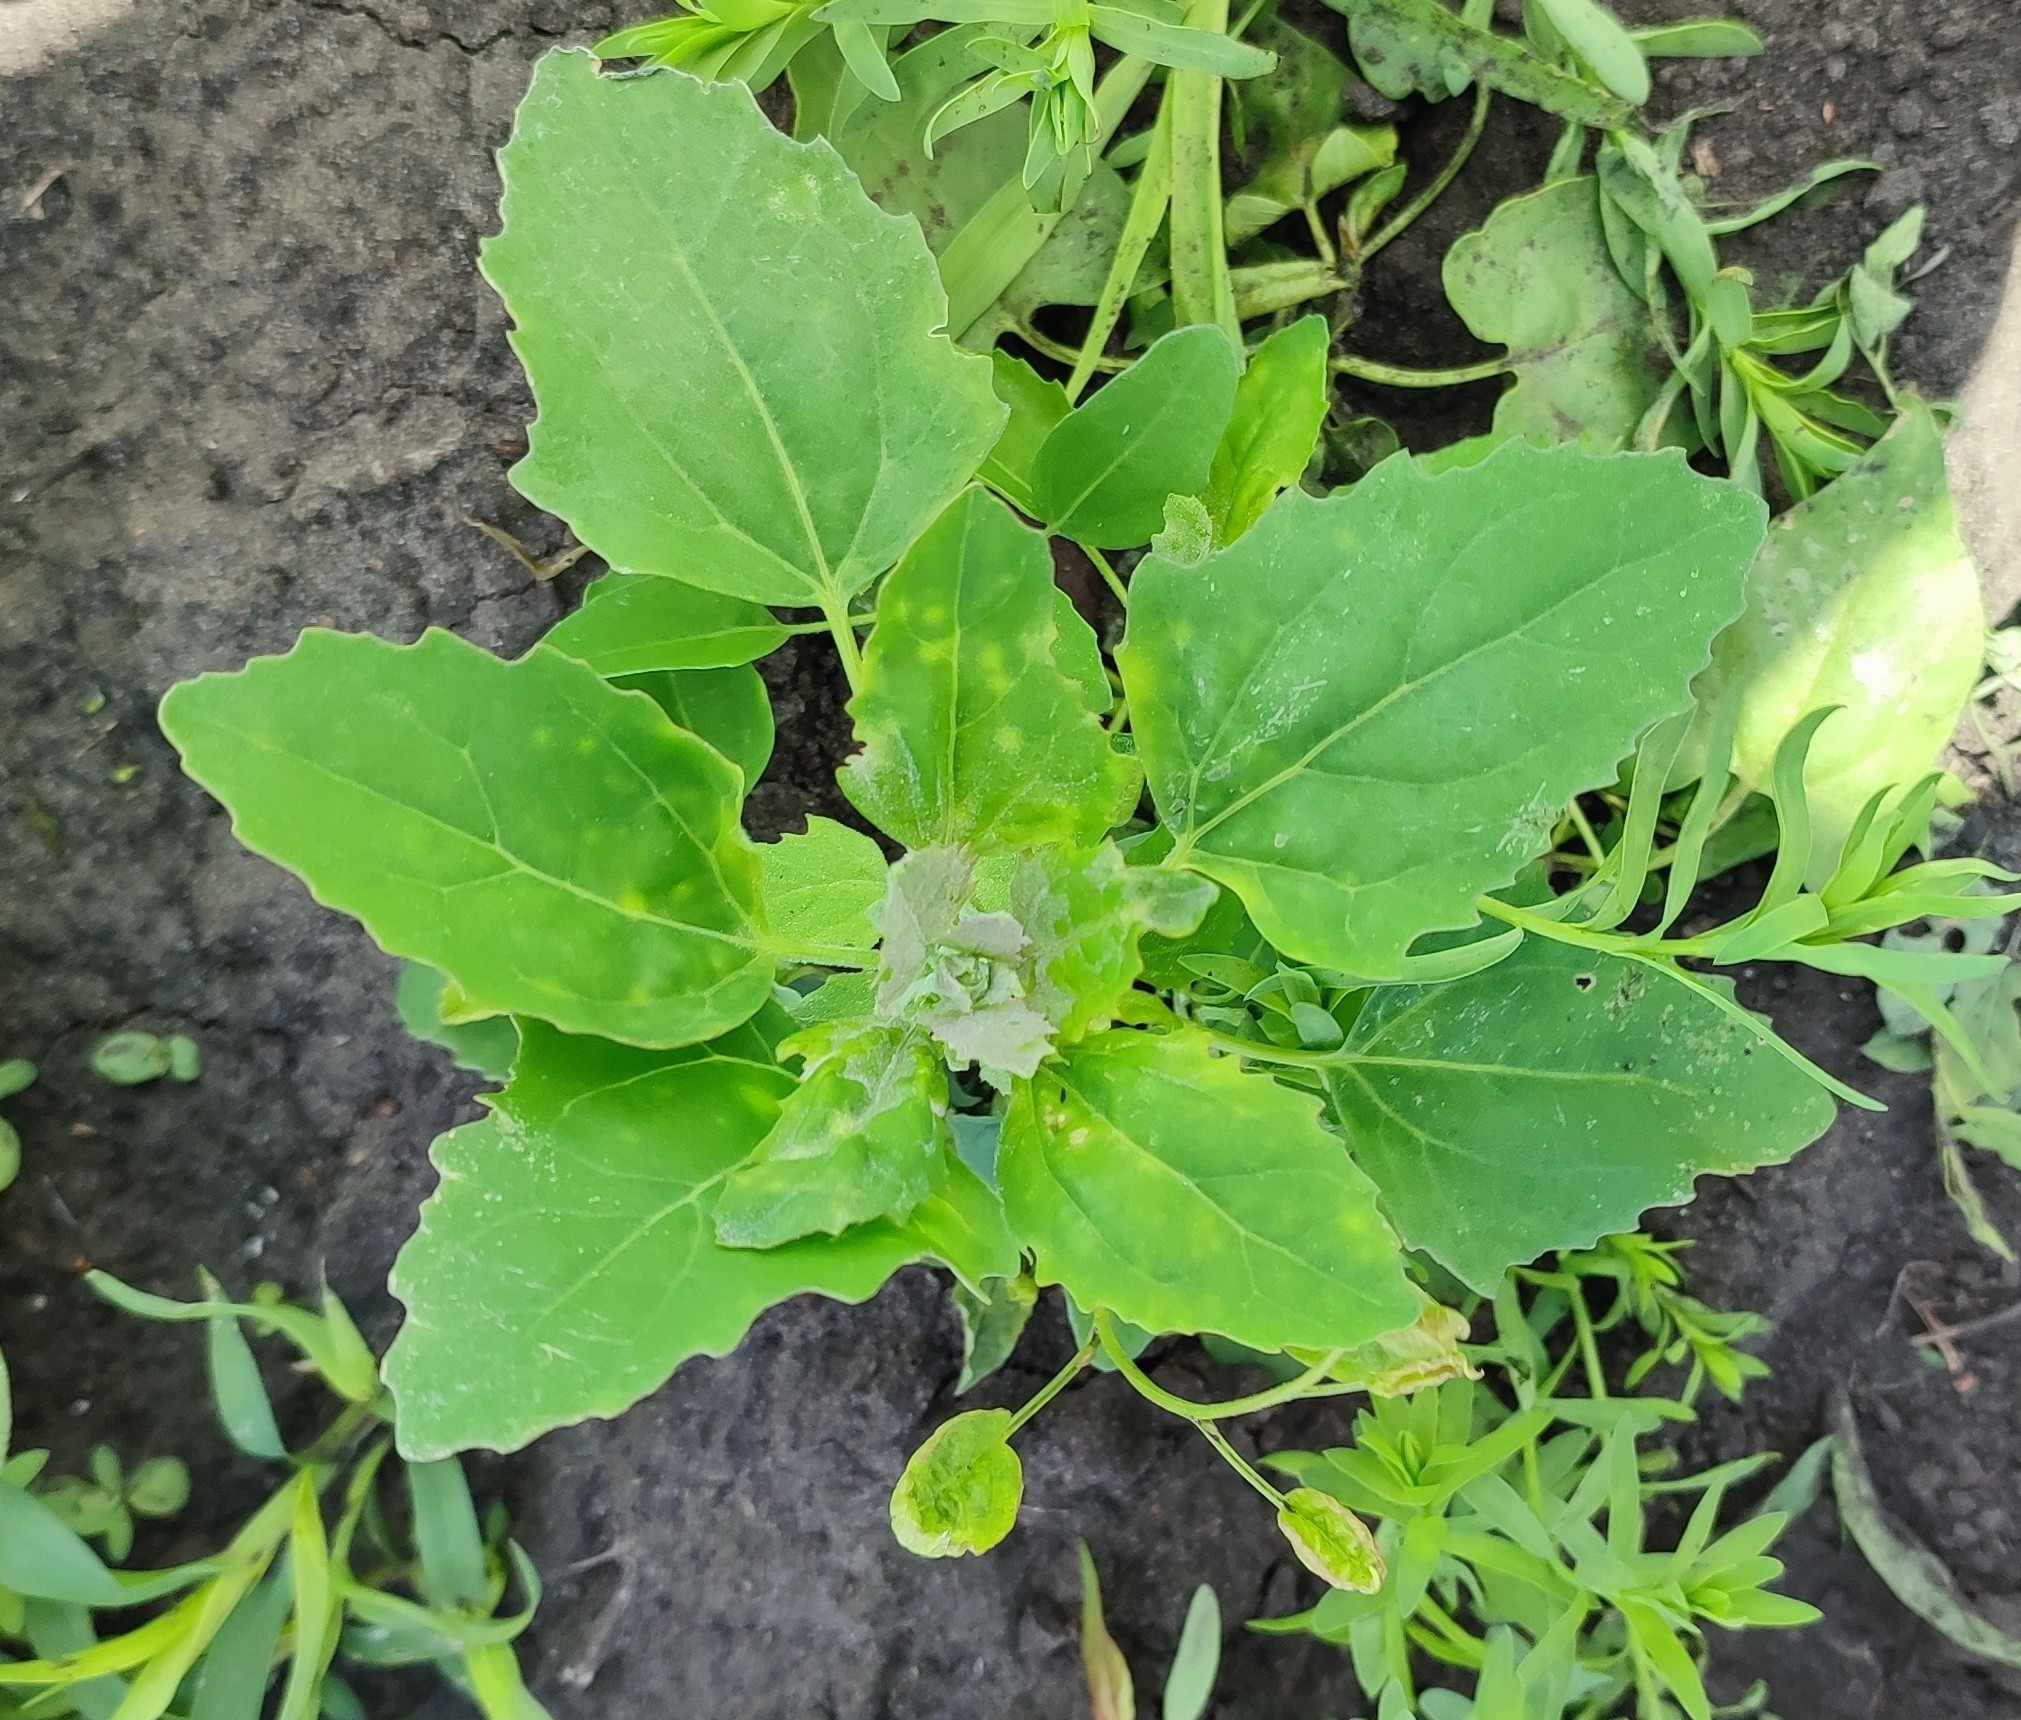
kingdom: Plantae
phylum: Tracheophyta
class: Magnoliopsida
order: Caryophyllales
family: Amaranthaceae
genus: Chenopodium
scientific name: Chenopodium album
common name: Fat-hen
